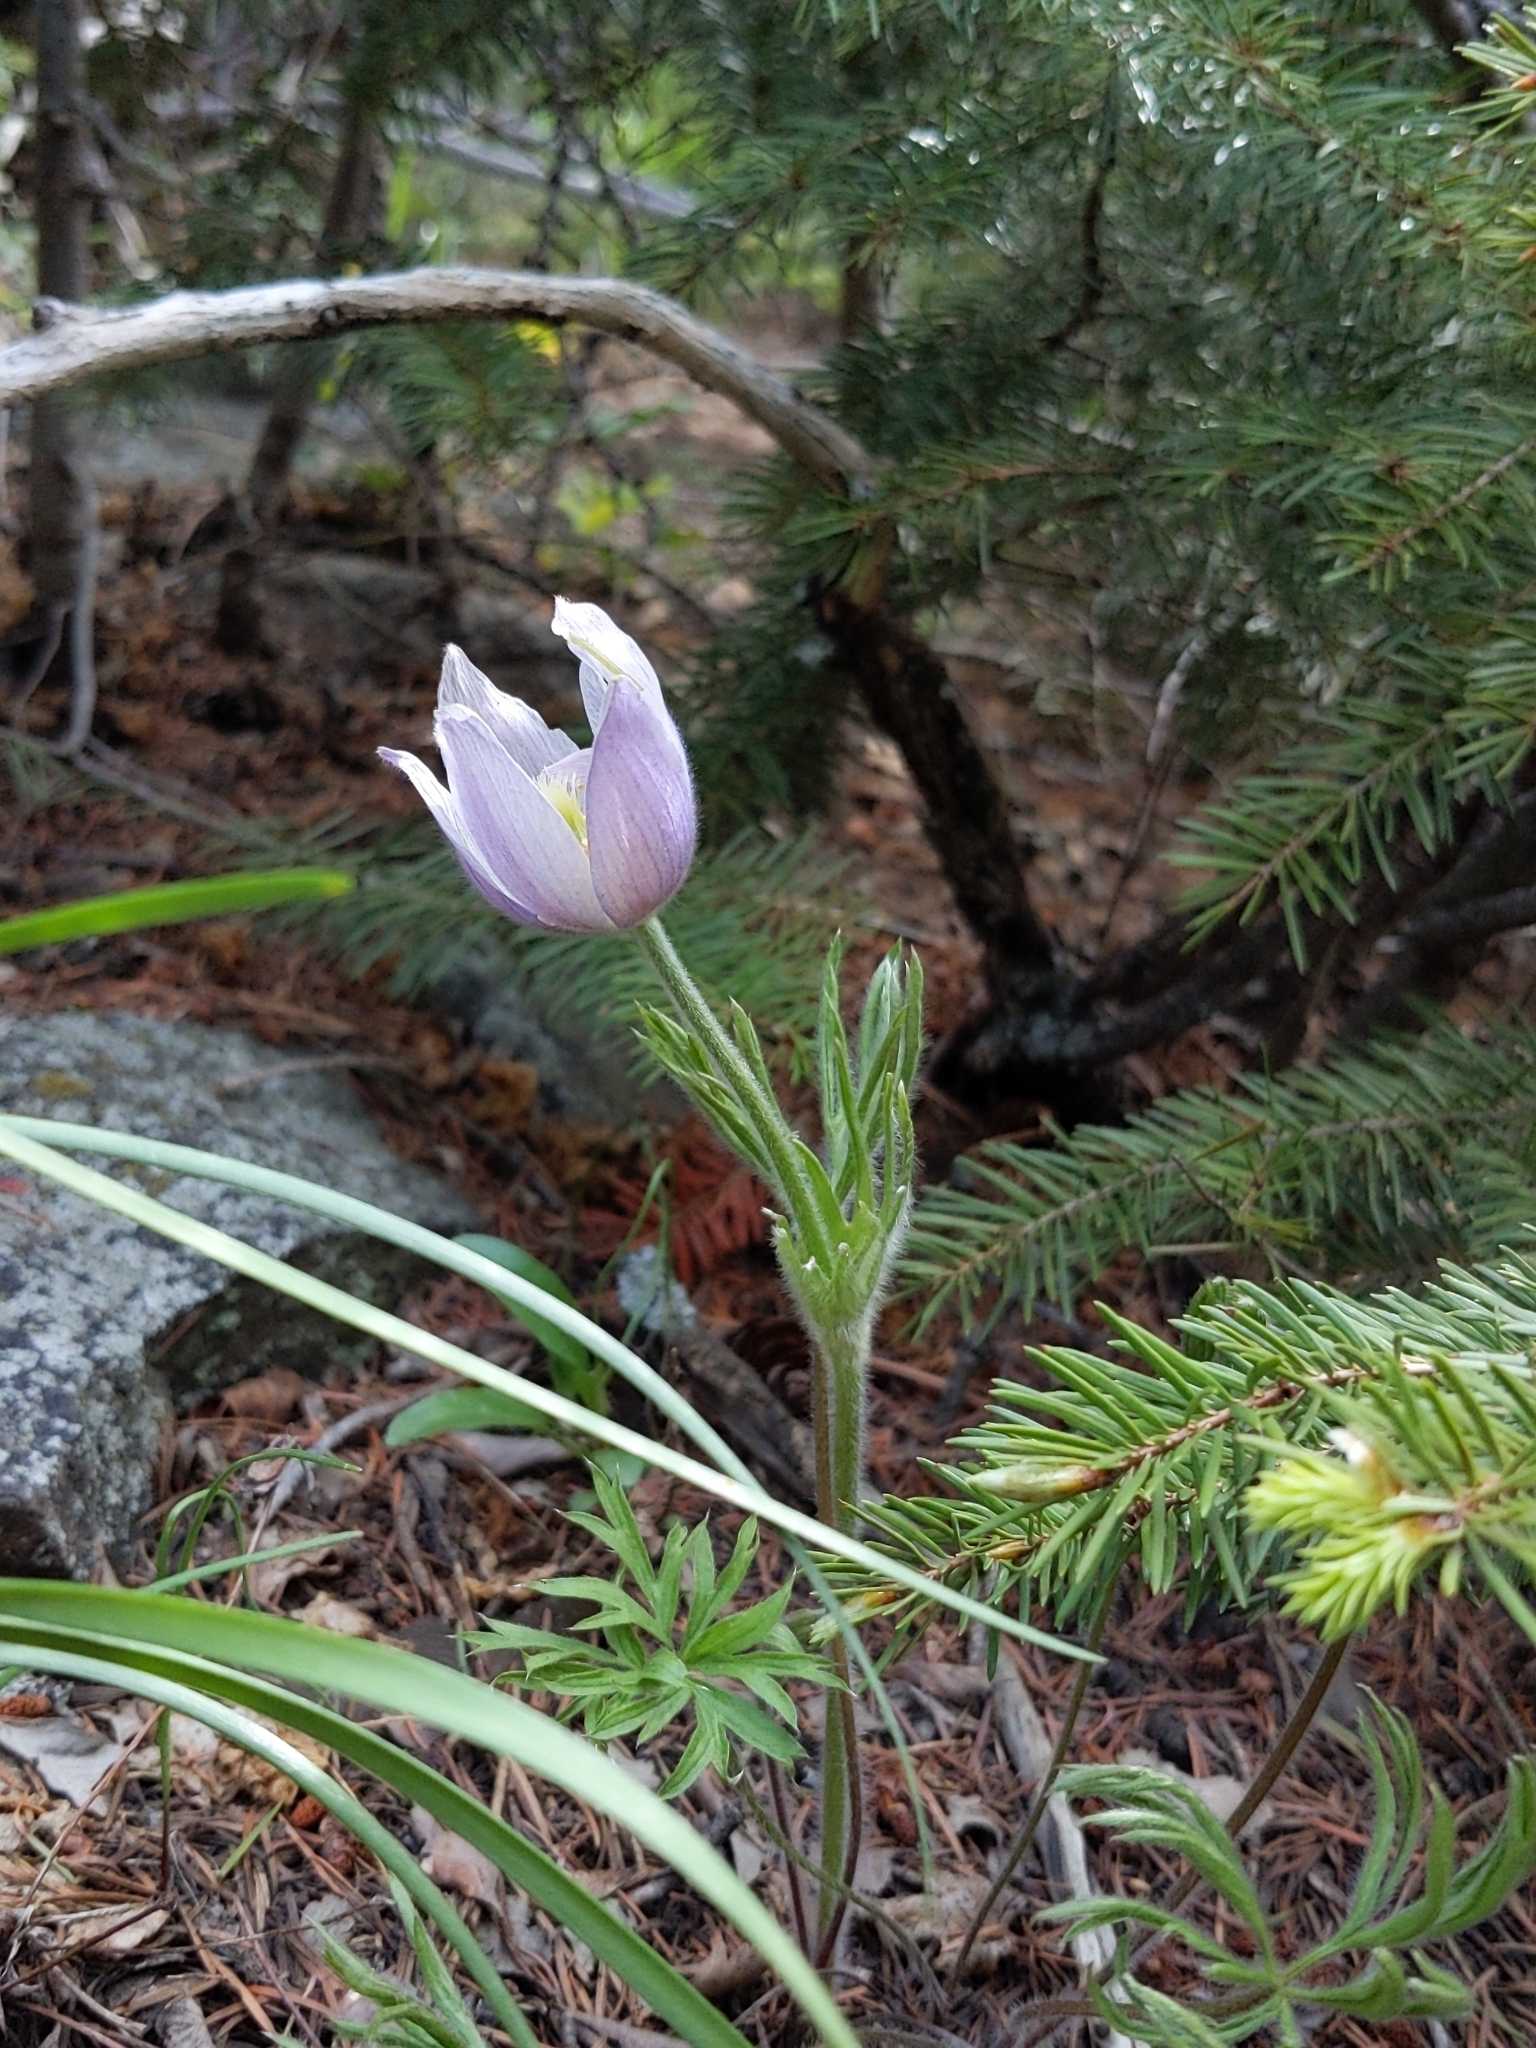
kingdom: Plantae
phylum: Tracheophyta
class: Magnoliopsida
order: Ranunculales
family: Ranunculaceae
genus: Pulsatilla
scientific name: Pulsatilla nuttalliana
